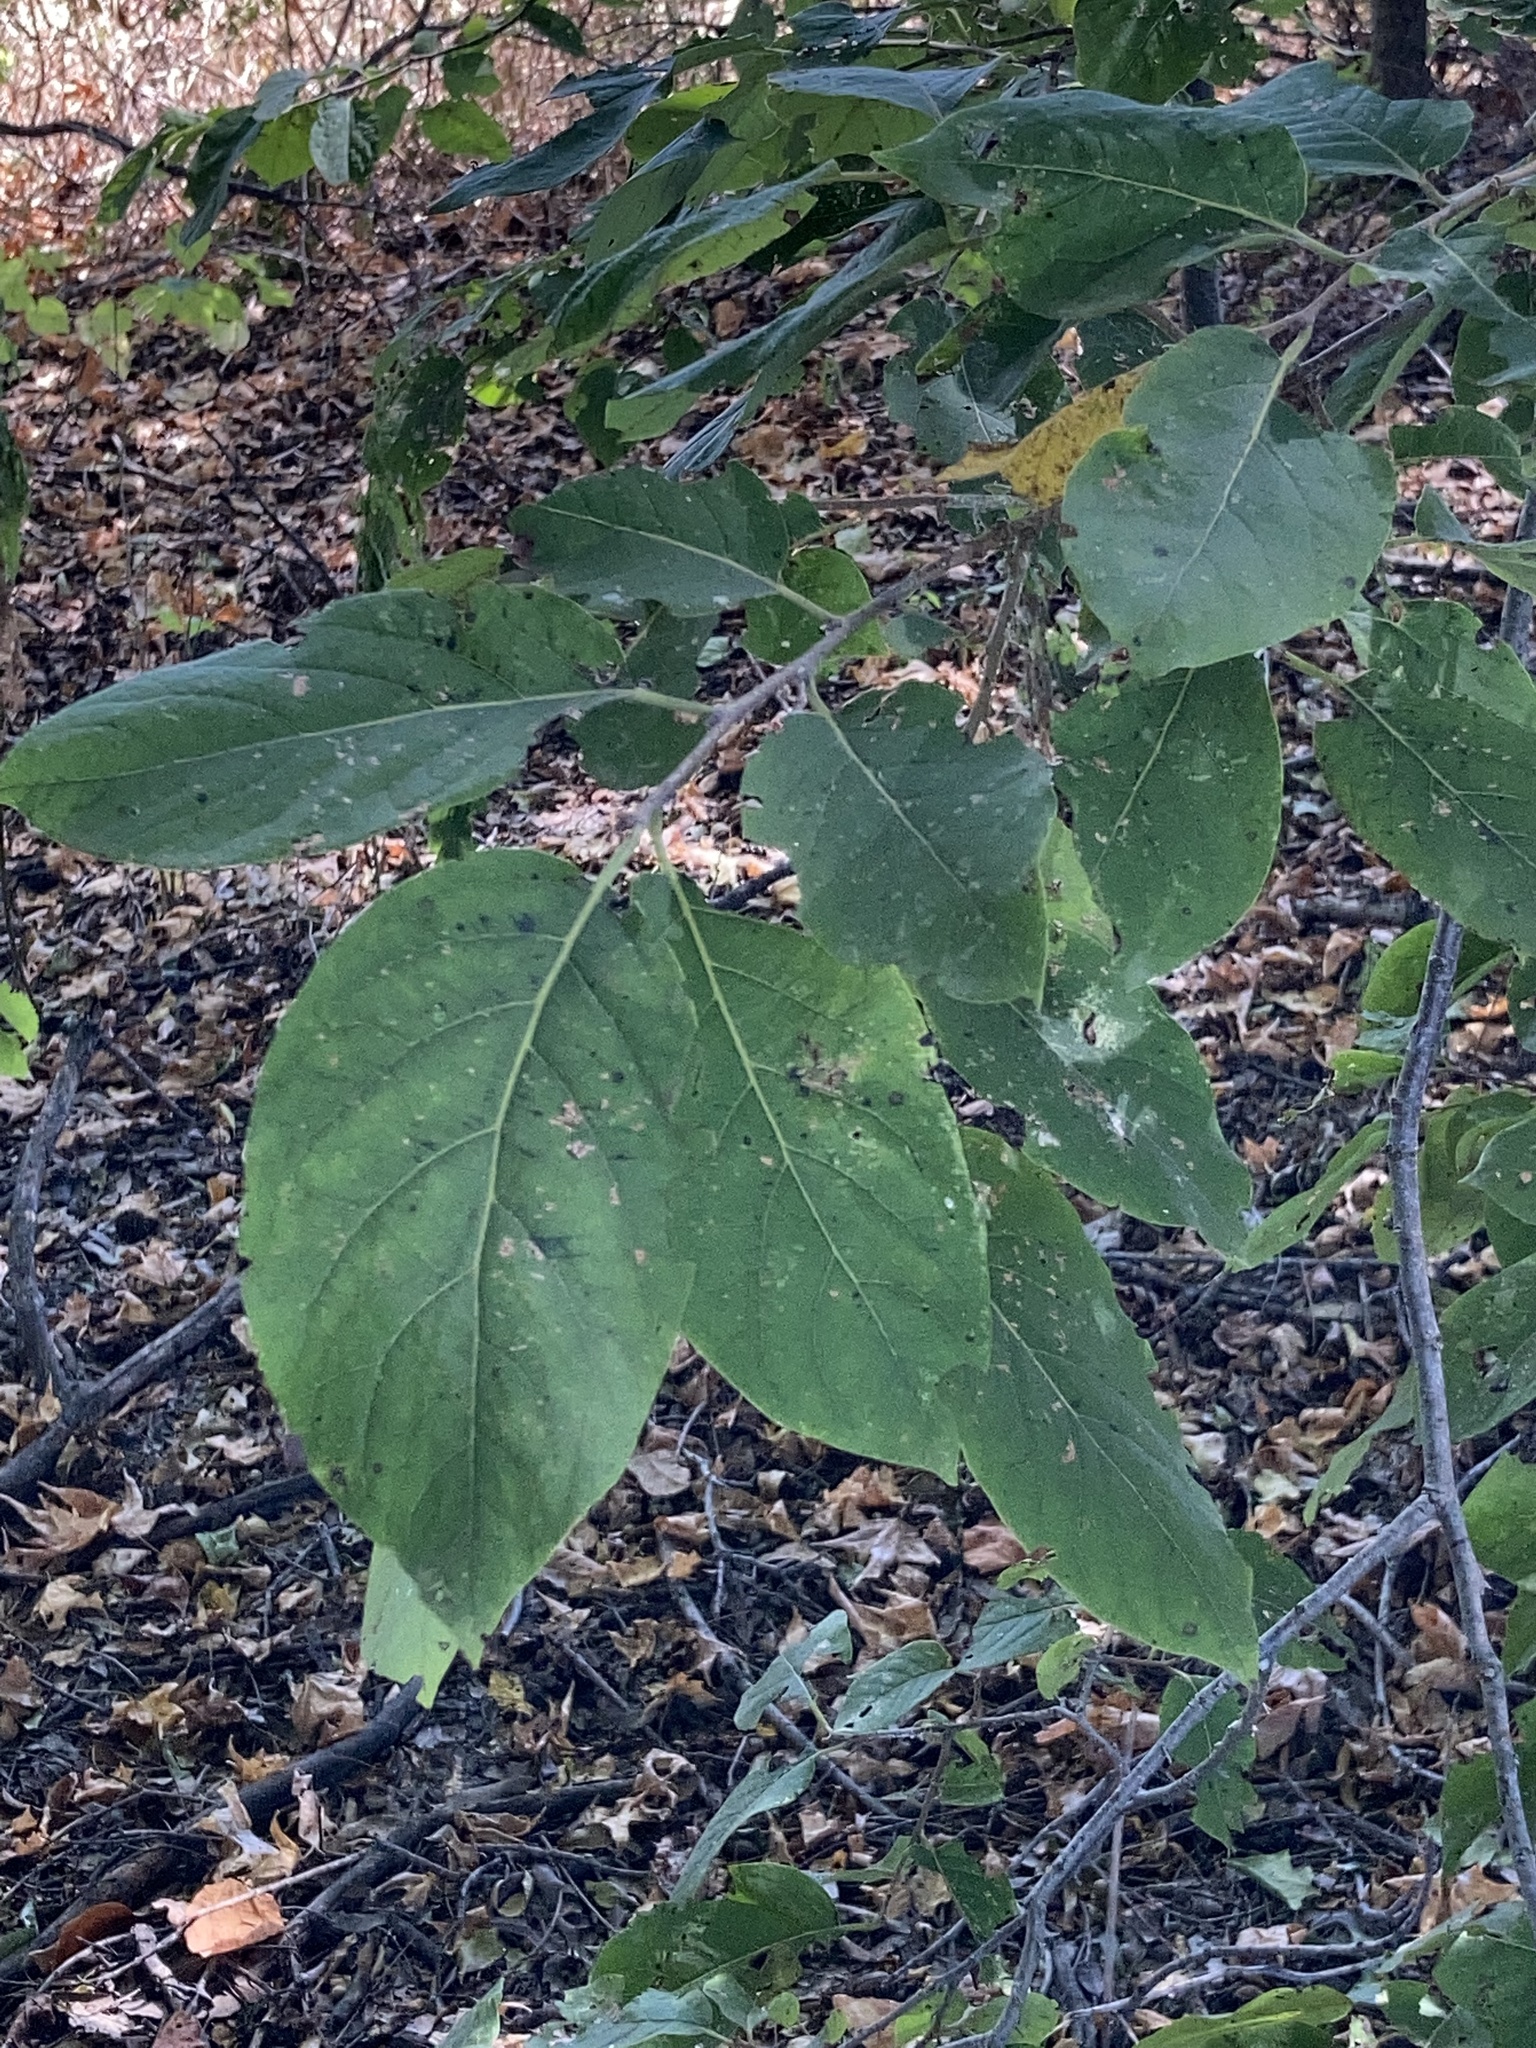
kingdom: Plantae
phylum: Tracheophyta
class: Magnoliopsida
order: Ericales
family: Ebenaceae
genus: Diospyros
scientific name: Diospyros virginiana
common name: Persimmon
